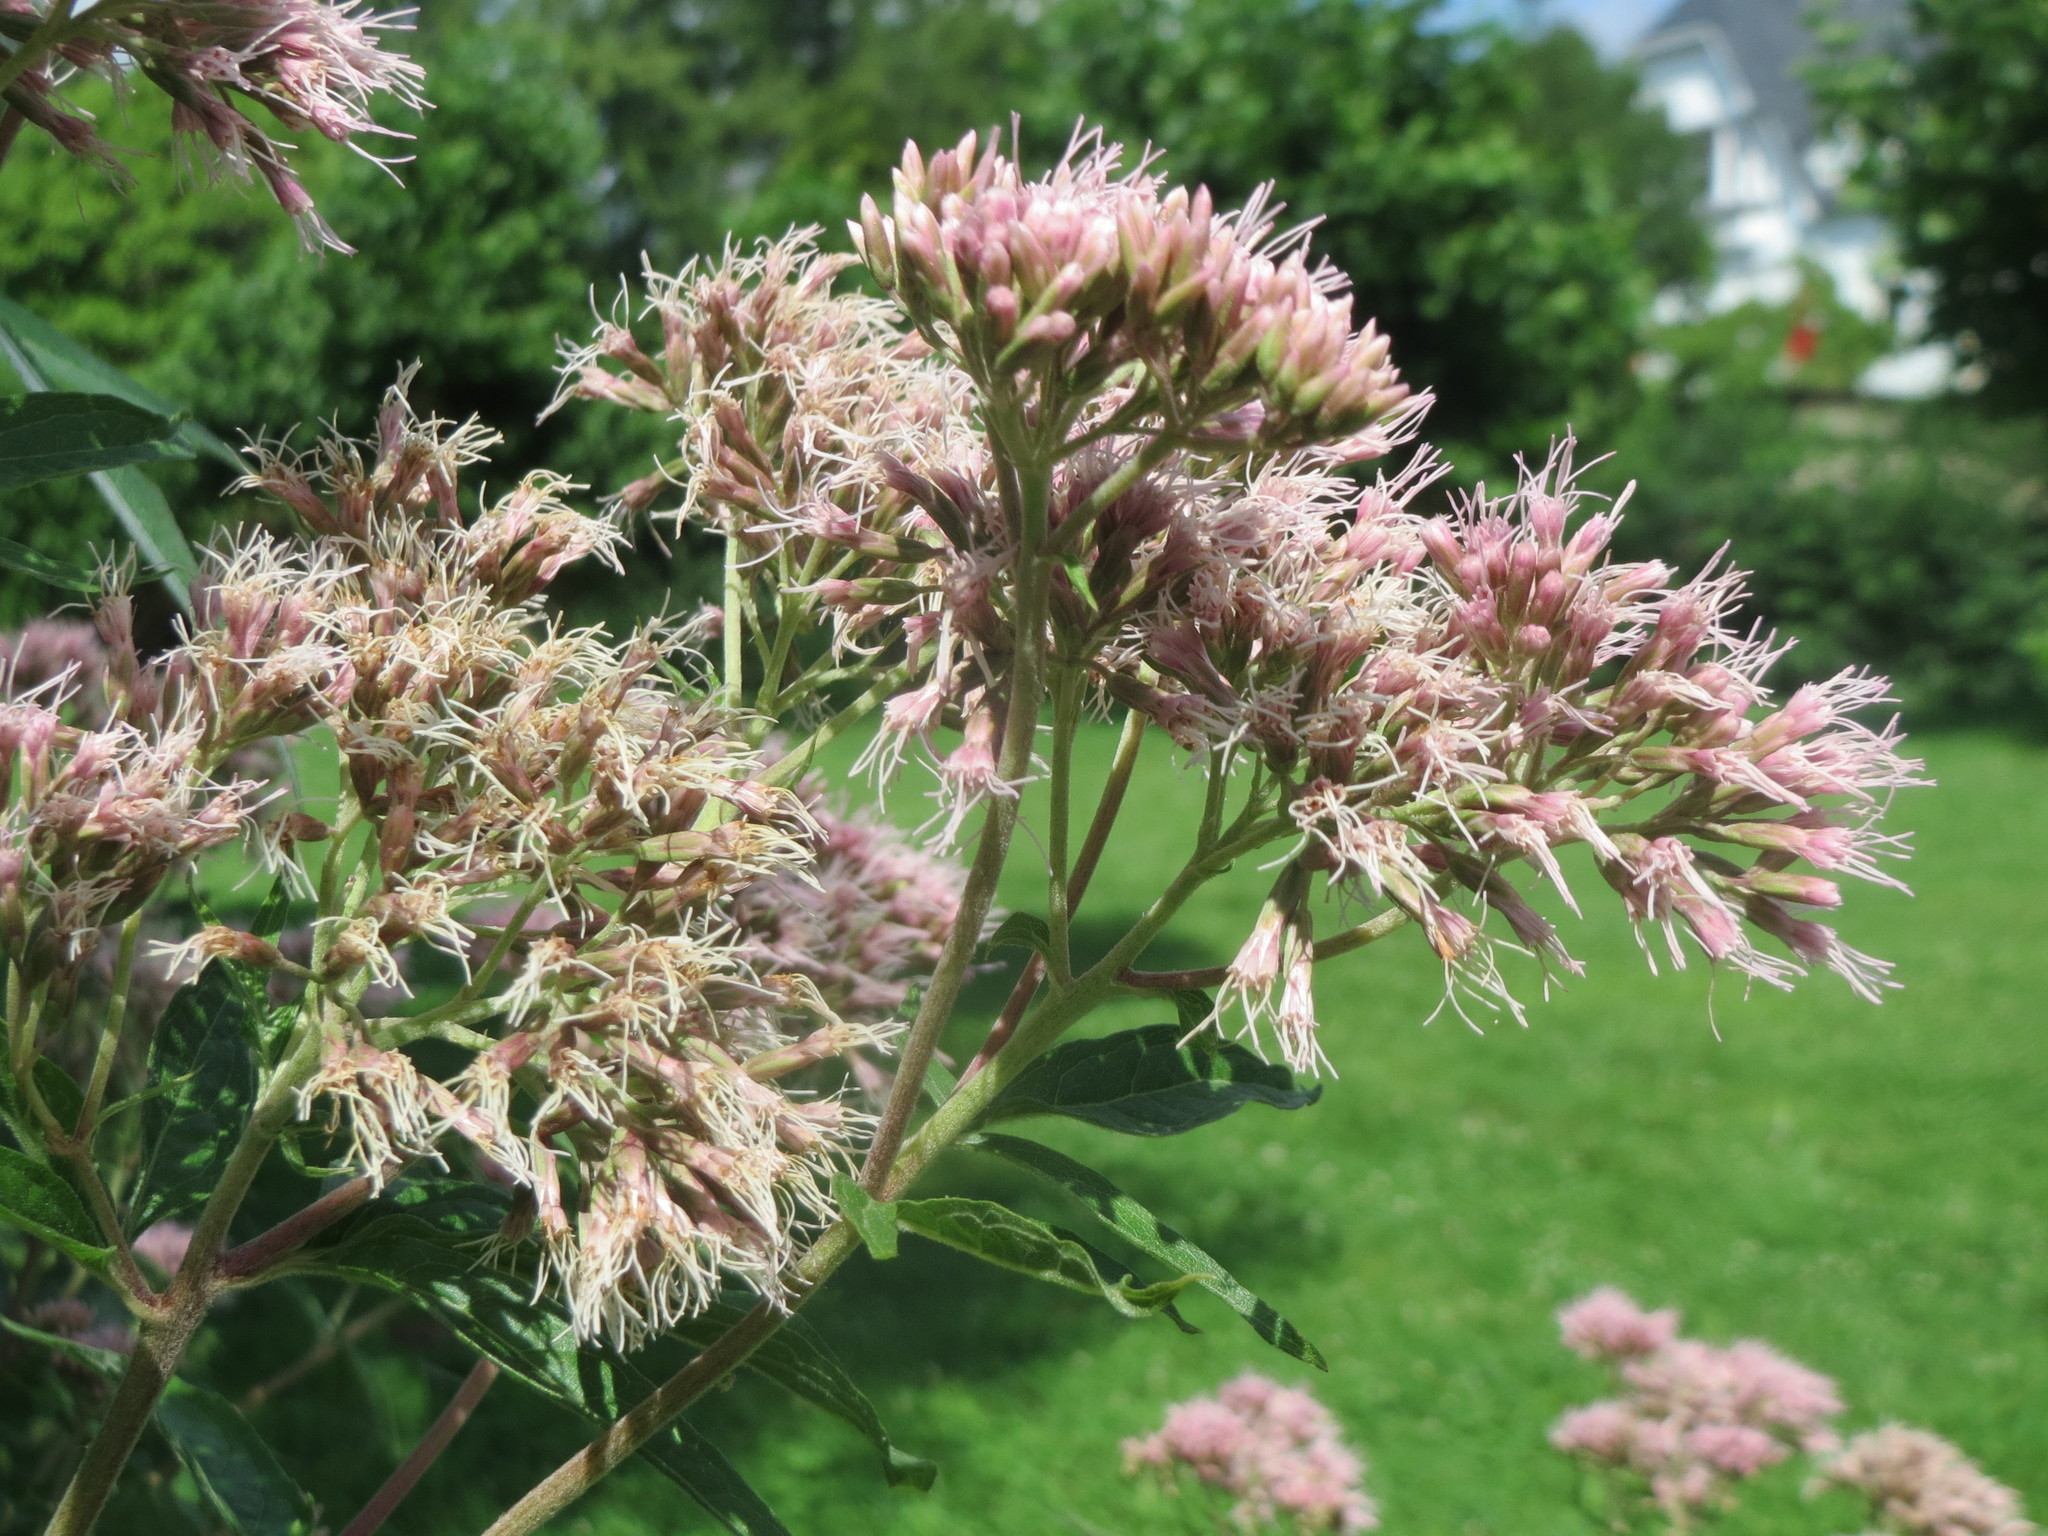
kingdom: Plantae
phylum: Tracheophyta
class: Magnoliopsida
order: Asterales
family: Asteraceae
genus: Eupatorium
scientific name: Eupatorium cannabinum
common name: Hemp-agrimony
